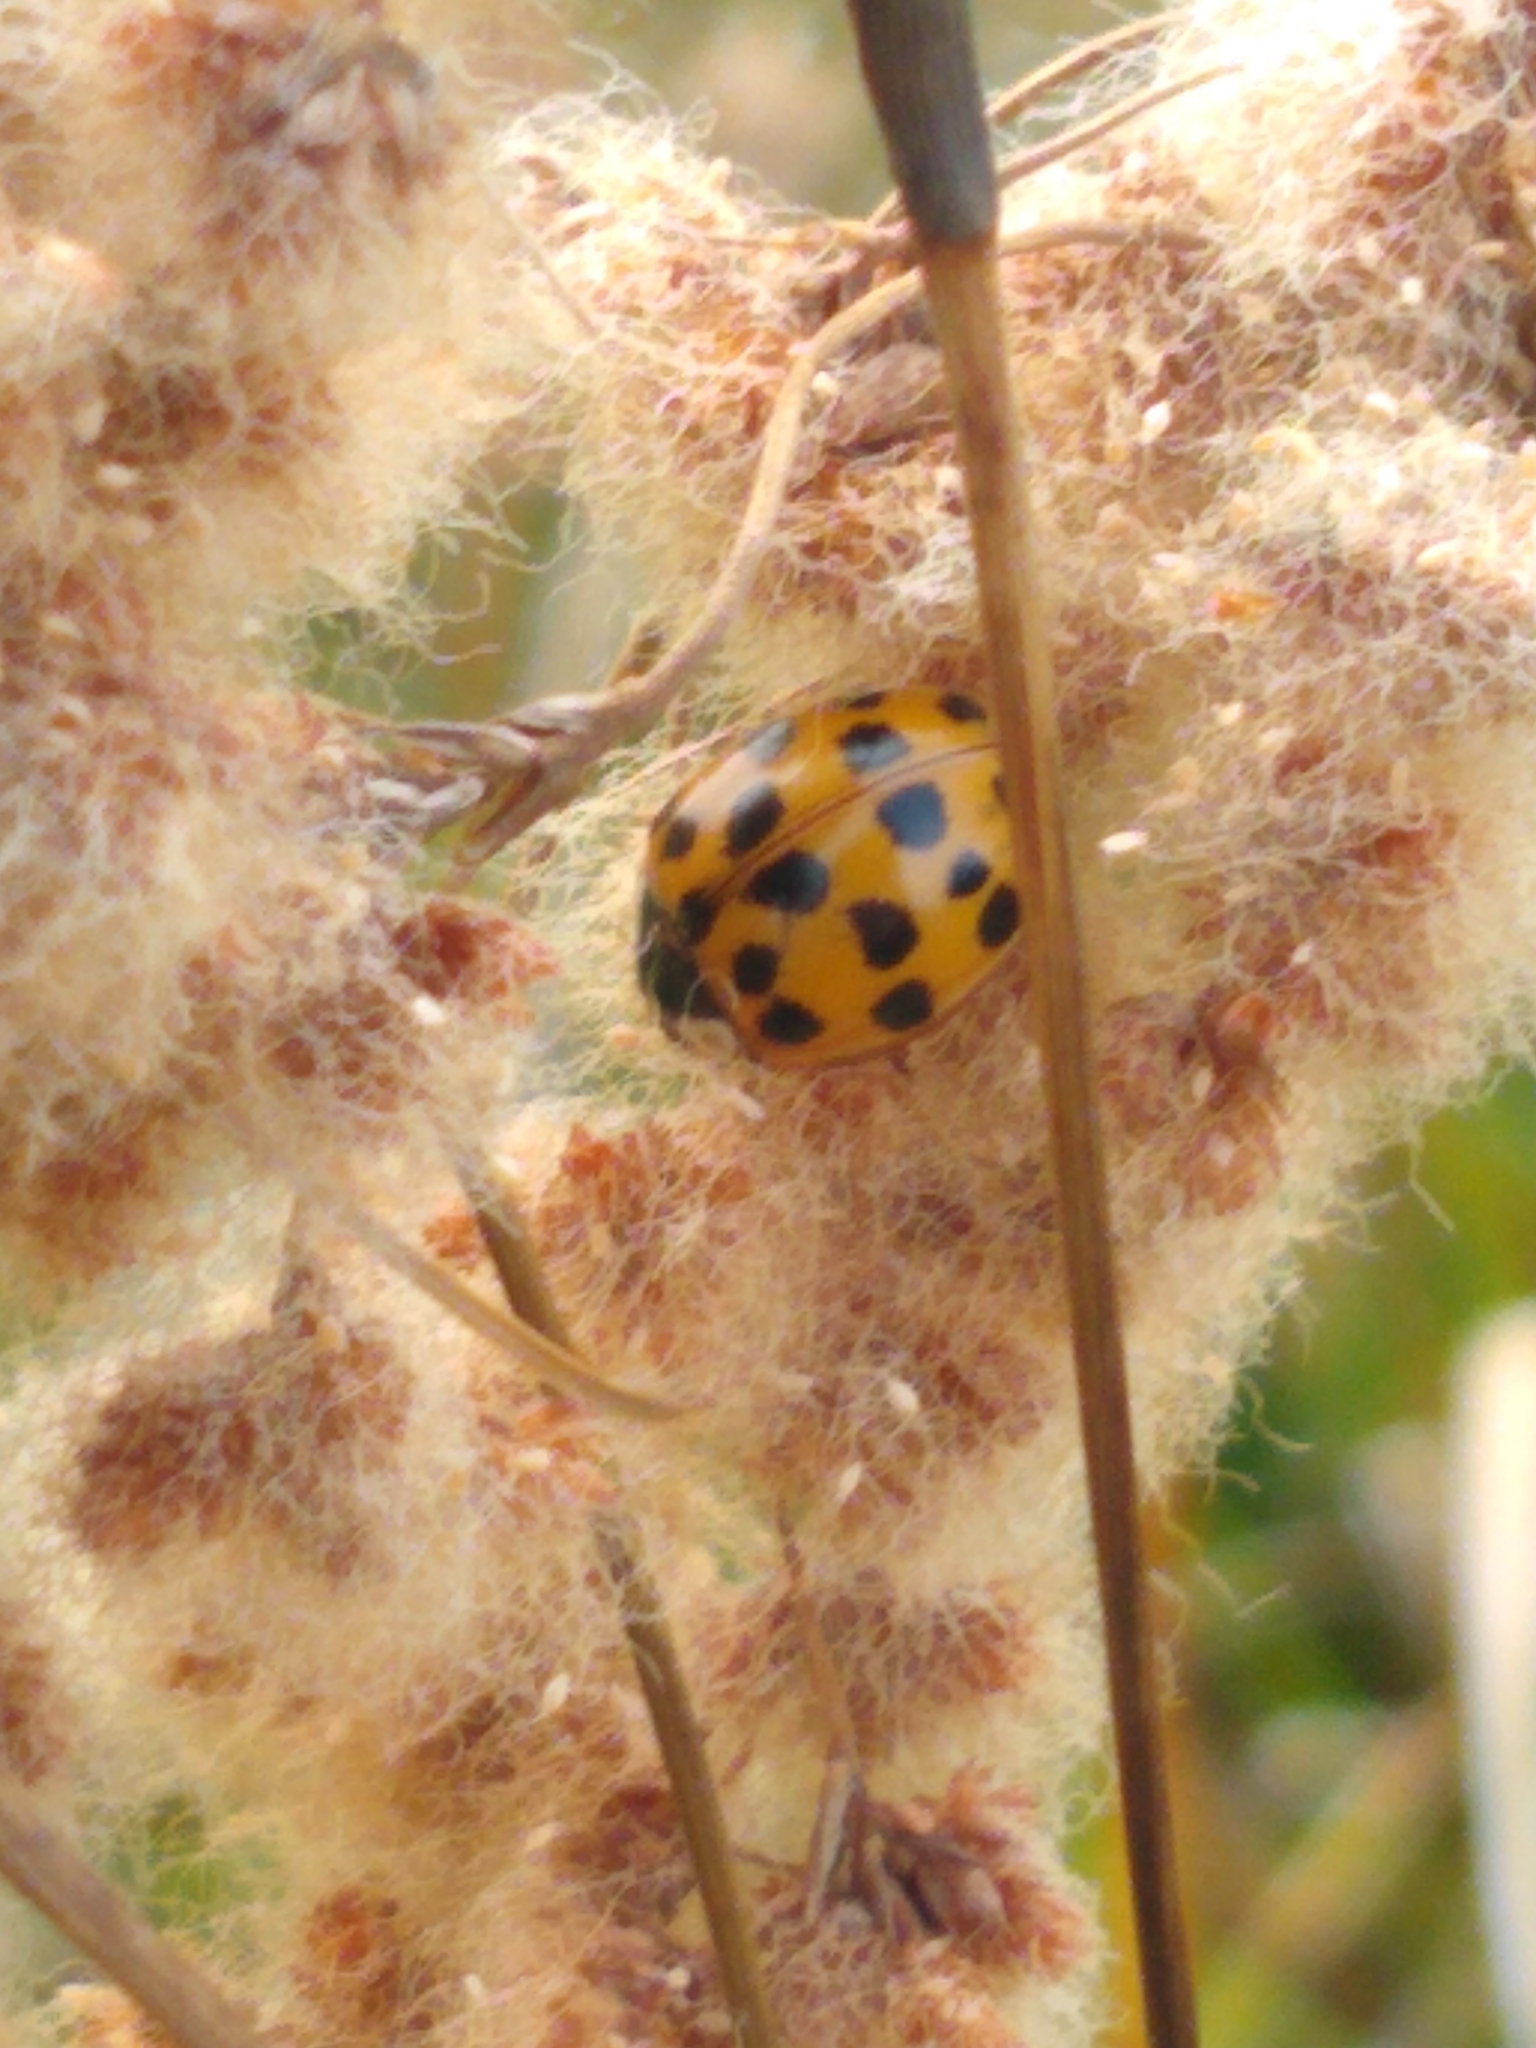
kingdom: Animalia
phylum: Arthropoda
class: Insecta
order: Coleoptera
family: Coccinellidae
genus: Harmonia
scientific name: Harmonia axyridis
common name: Harlequin ladybird
